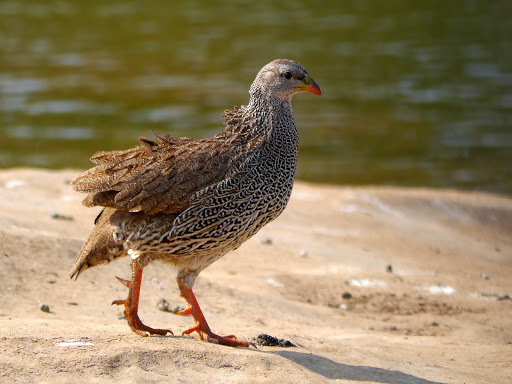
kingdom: Animalia
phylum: Chordata
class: Aves
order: Galliformes
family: Phasianidae
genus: Pternistis
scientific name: Pternistis natalensis
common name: Natal spurfowl
